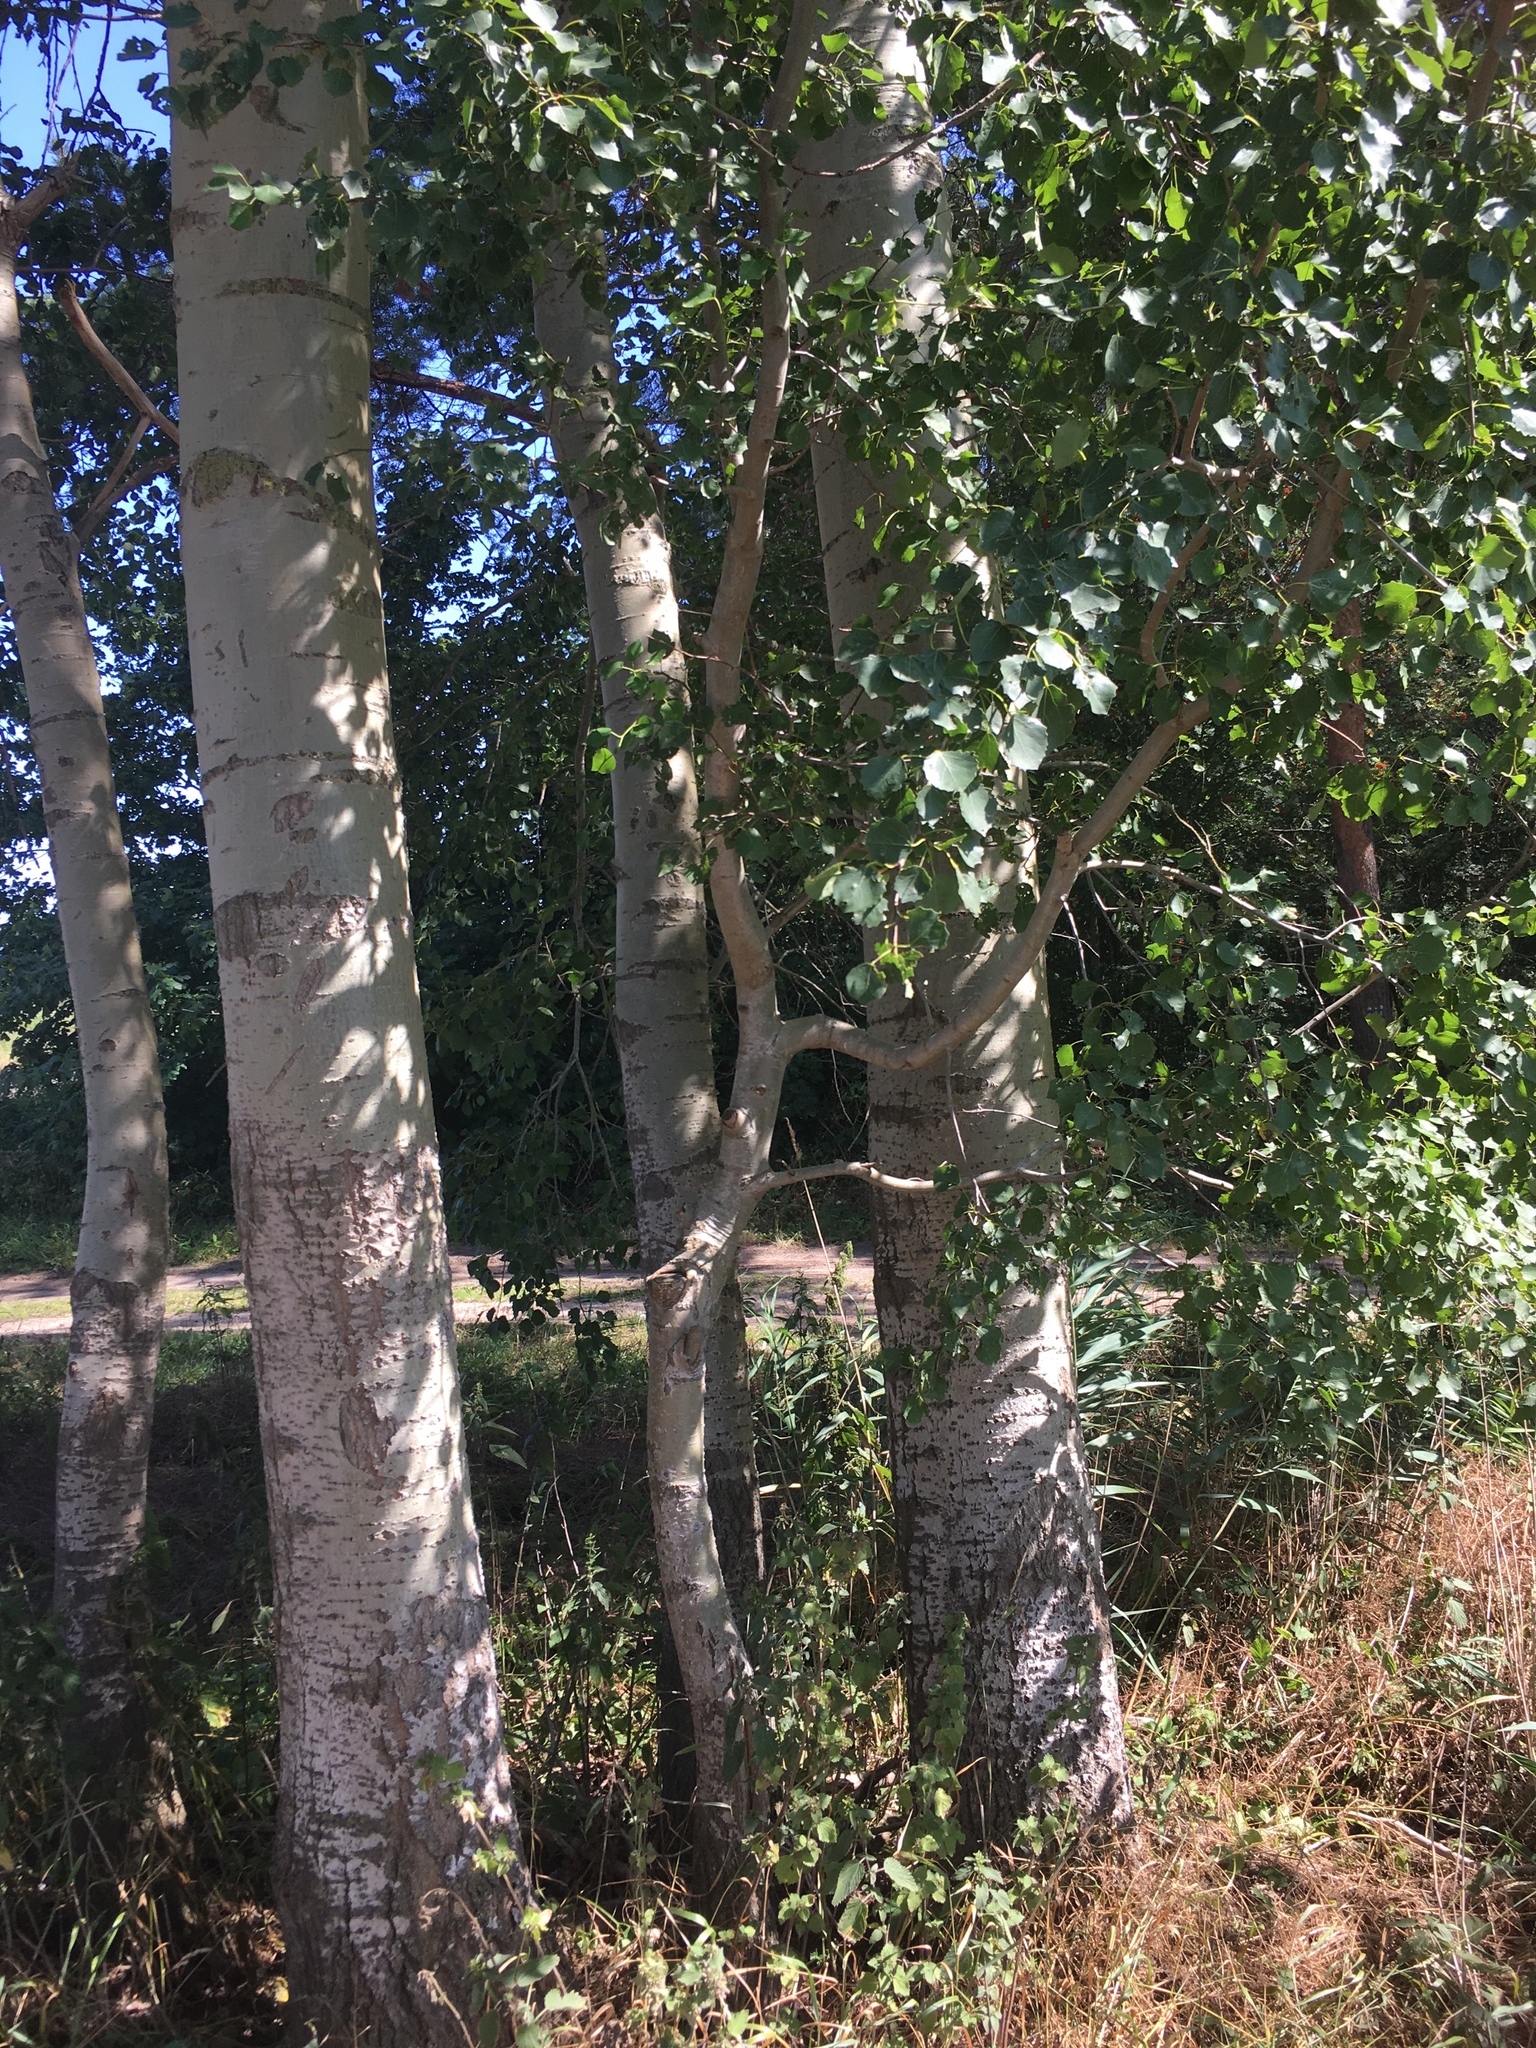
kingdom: Plantae
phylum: Tracheophyta
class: Magnoliopsida
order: Malpighiales
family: Salicaceae
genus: Populus
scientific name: Populus tremula
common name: European aspen
